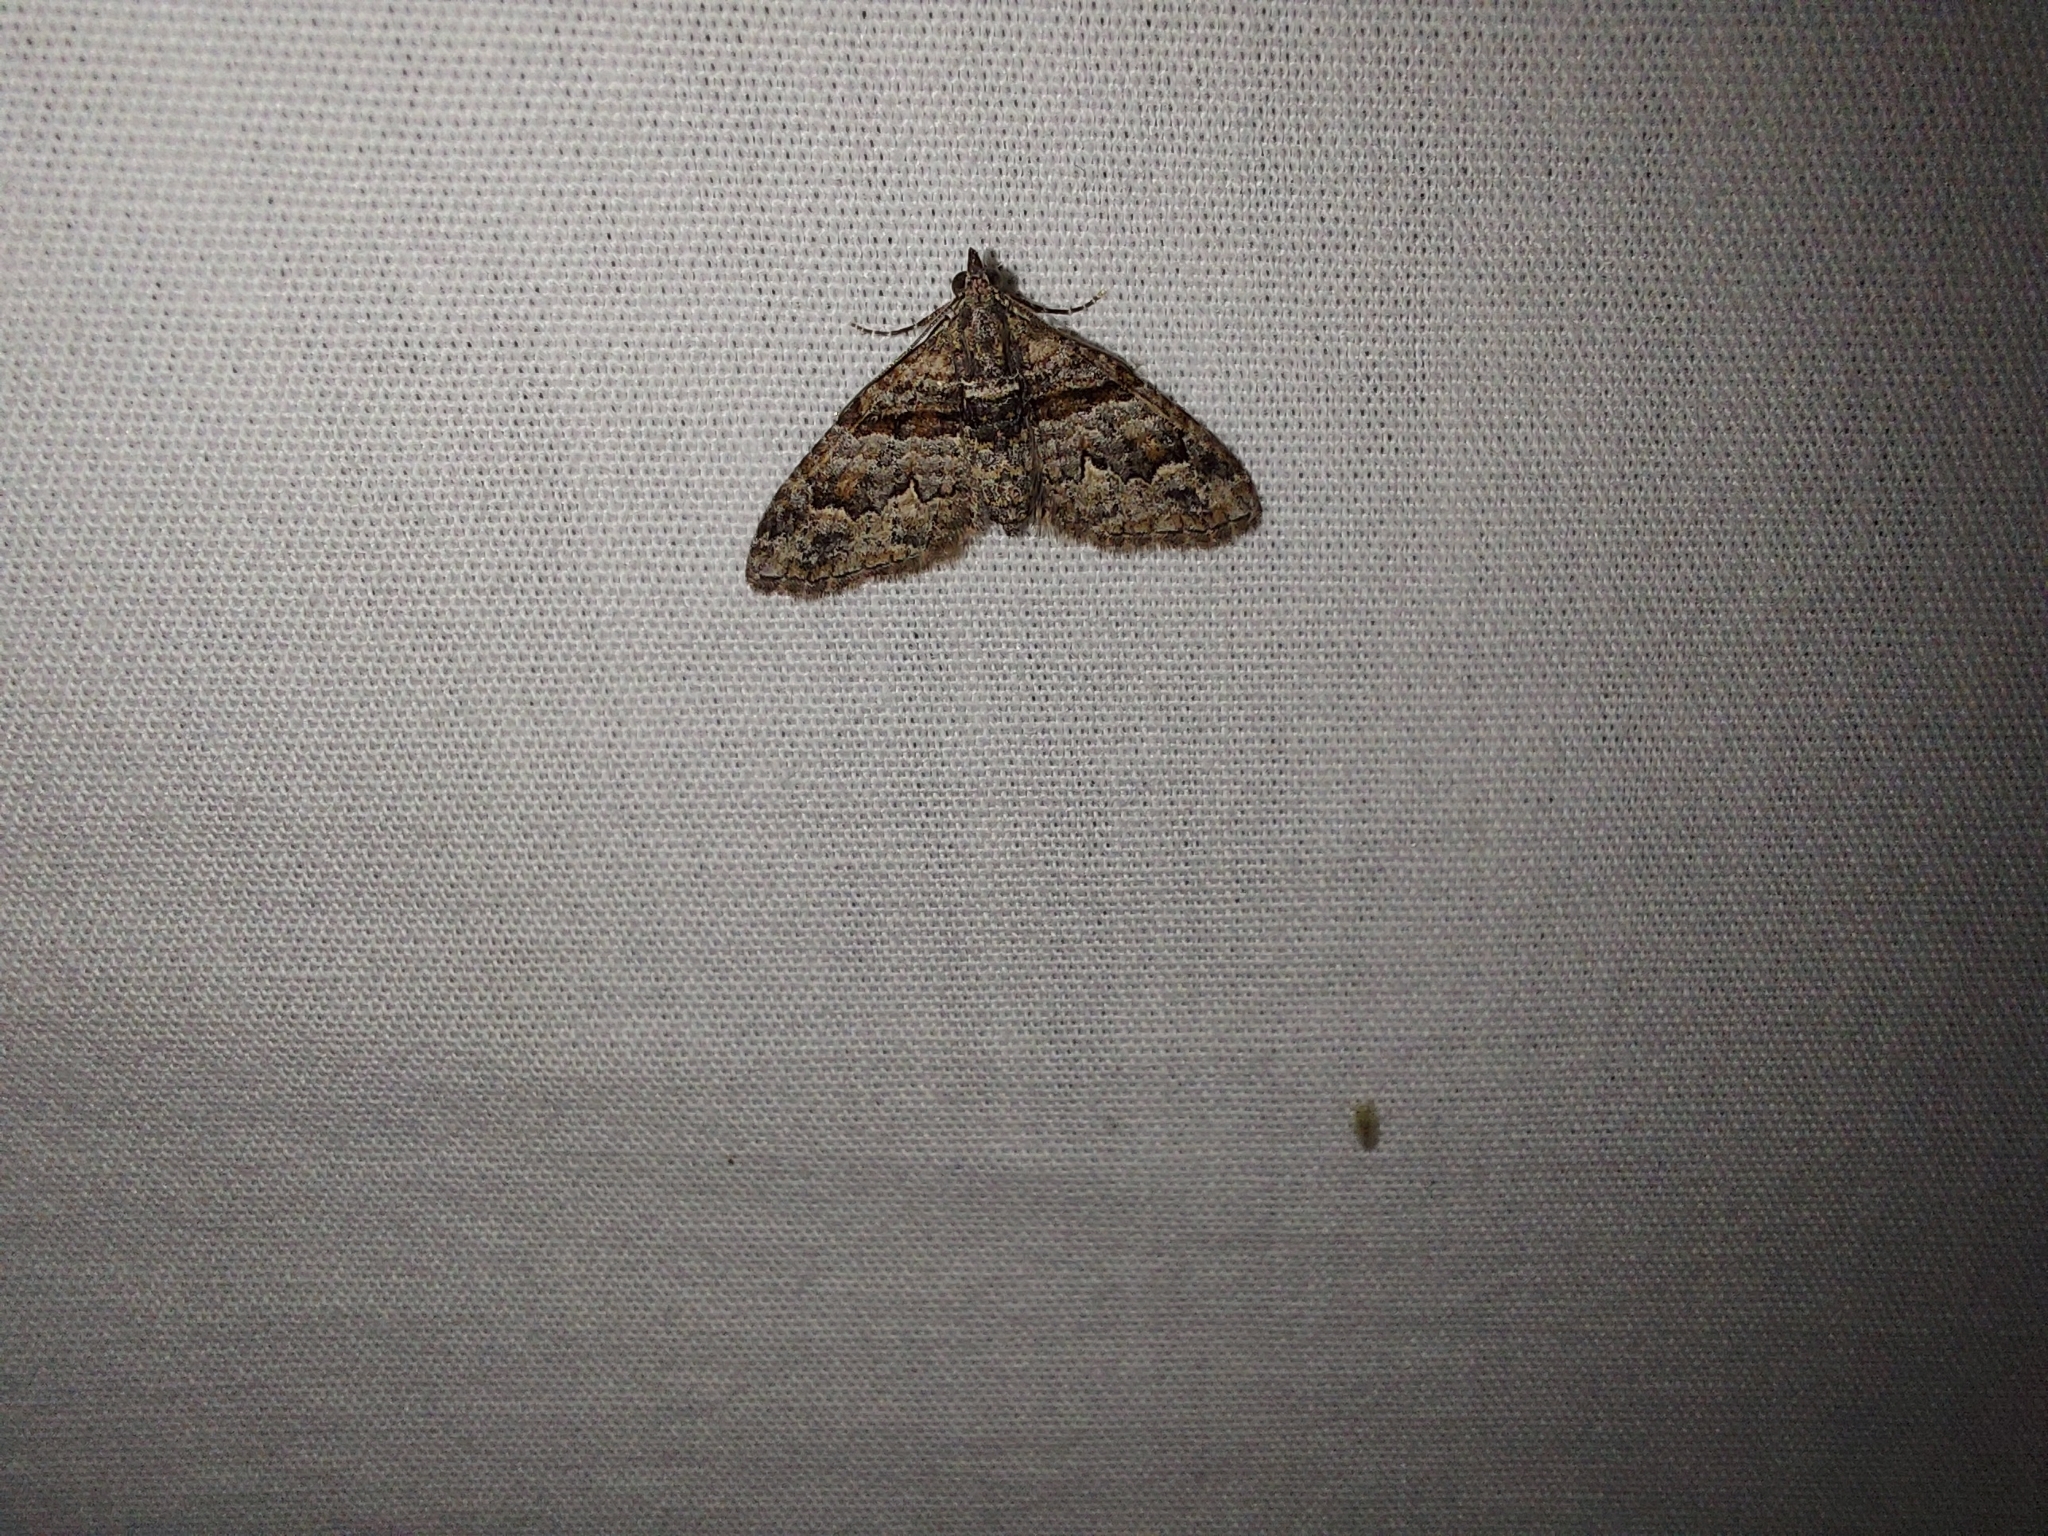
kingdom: Animalia
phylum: Arthropoda
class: Insecta
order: Lepidoptera
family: Geometridae
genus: Phrissogonus
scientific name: Phrissogonus laticostata
